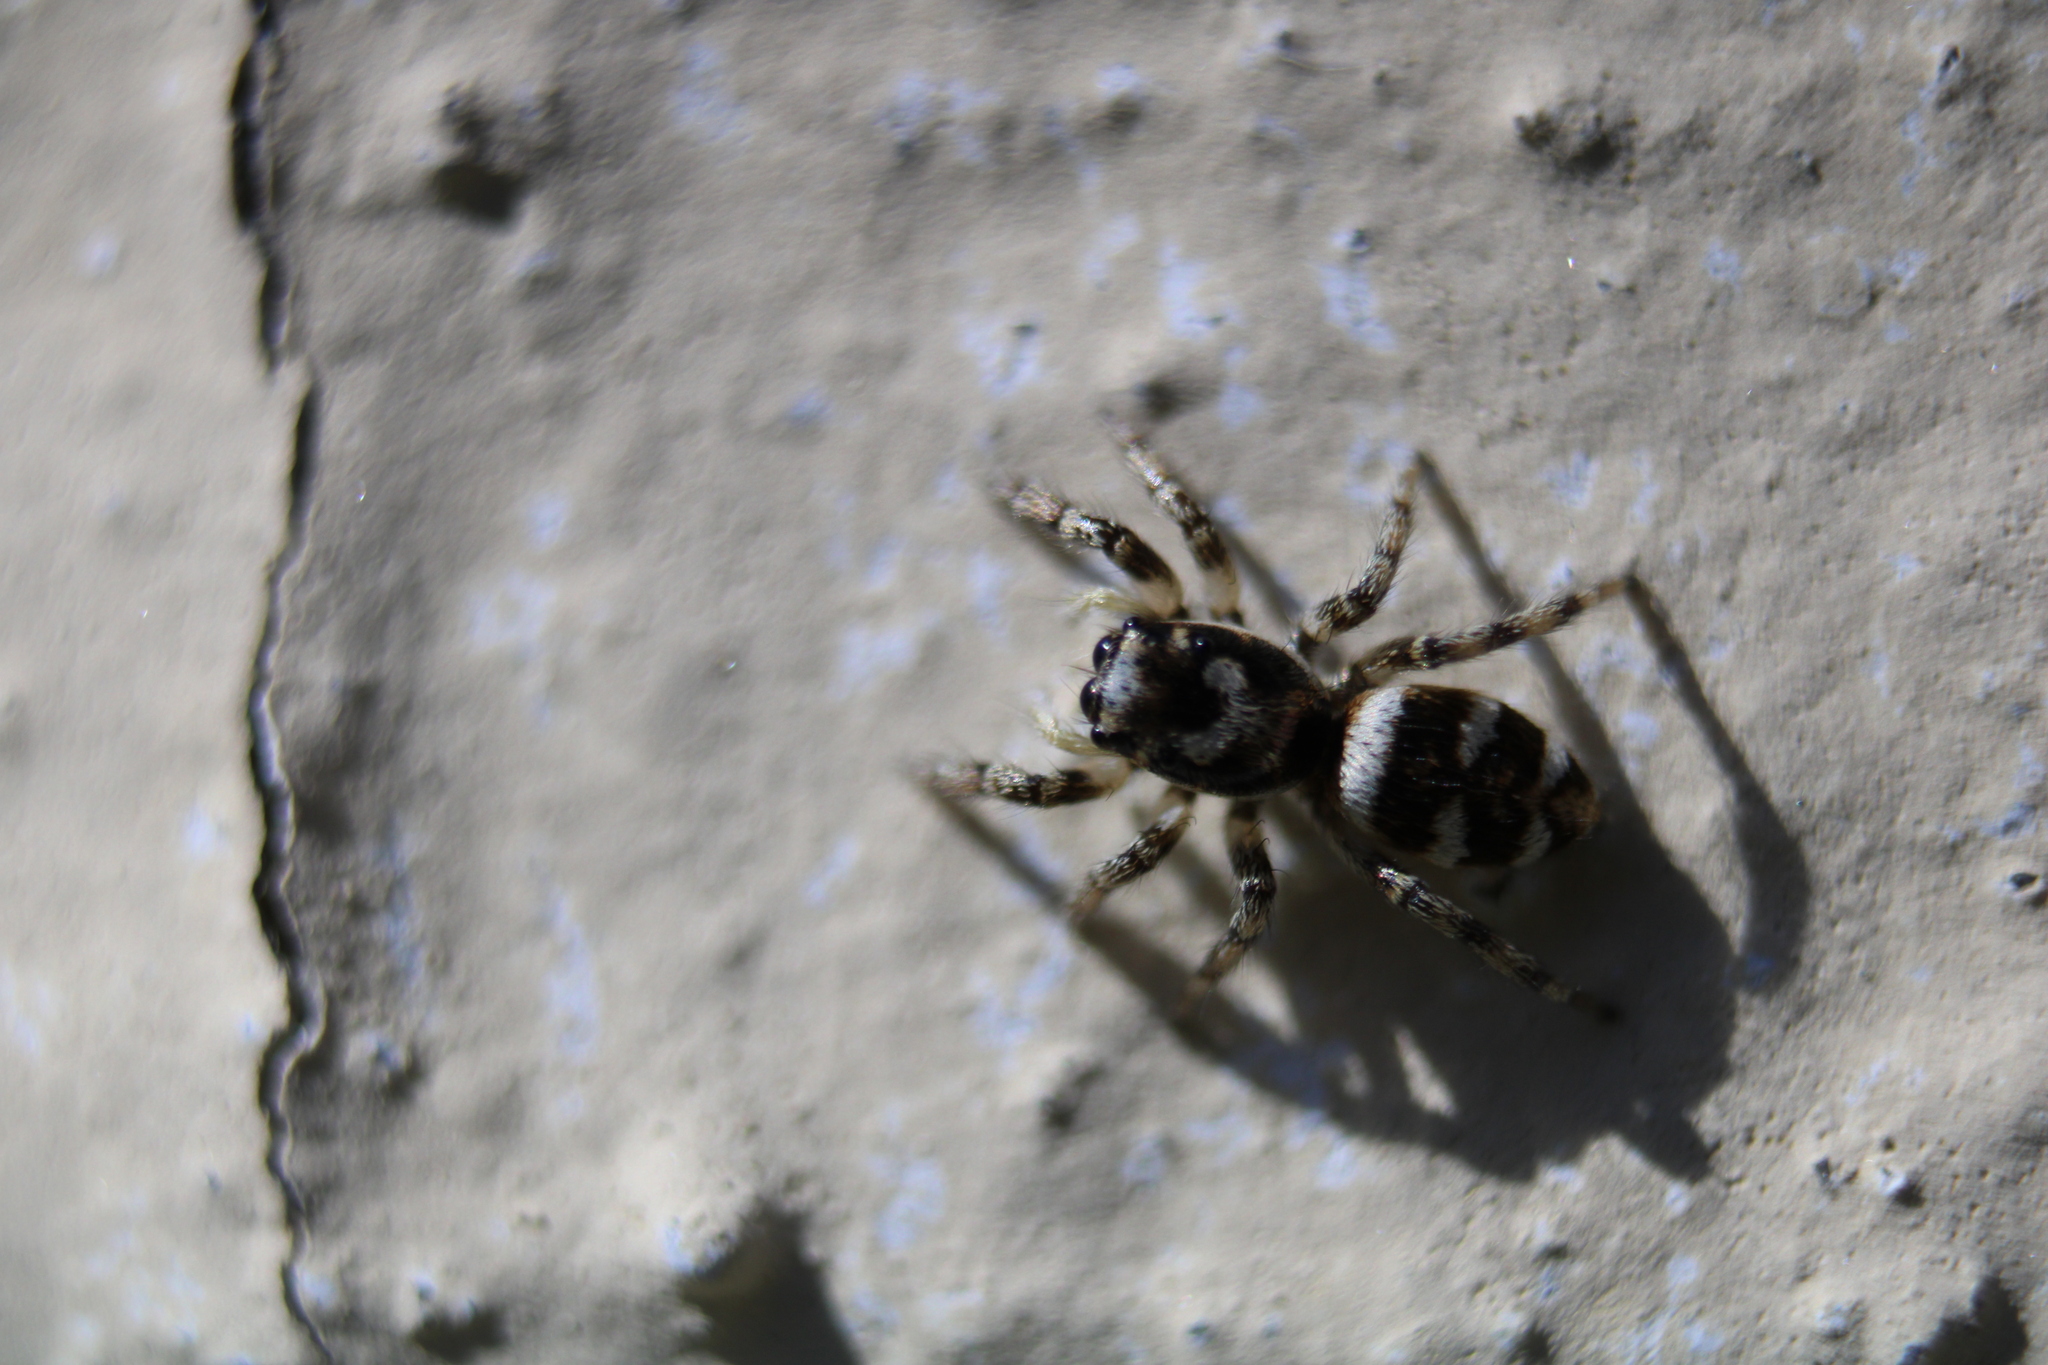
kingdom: Animalia
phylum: Arthropoda
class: Arachnida
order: Araneae
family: Salticidae
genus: Salticus
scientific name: Salticus scenicus
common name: Zebra jumper
